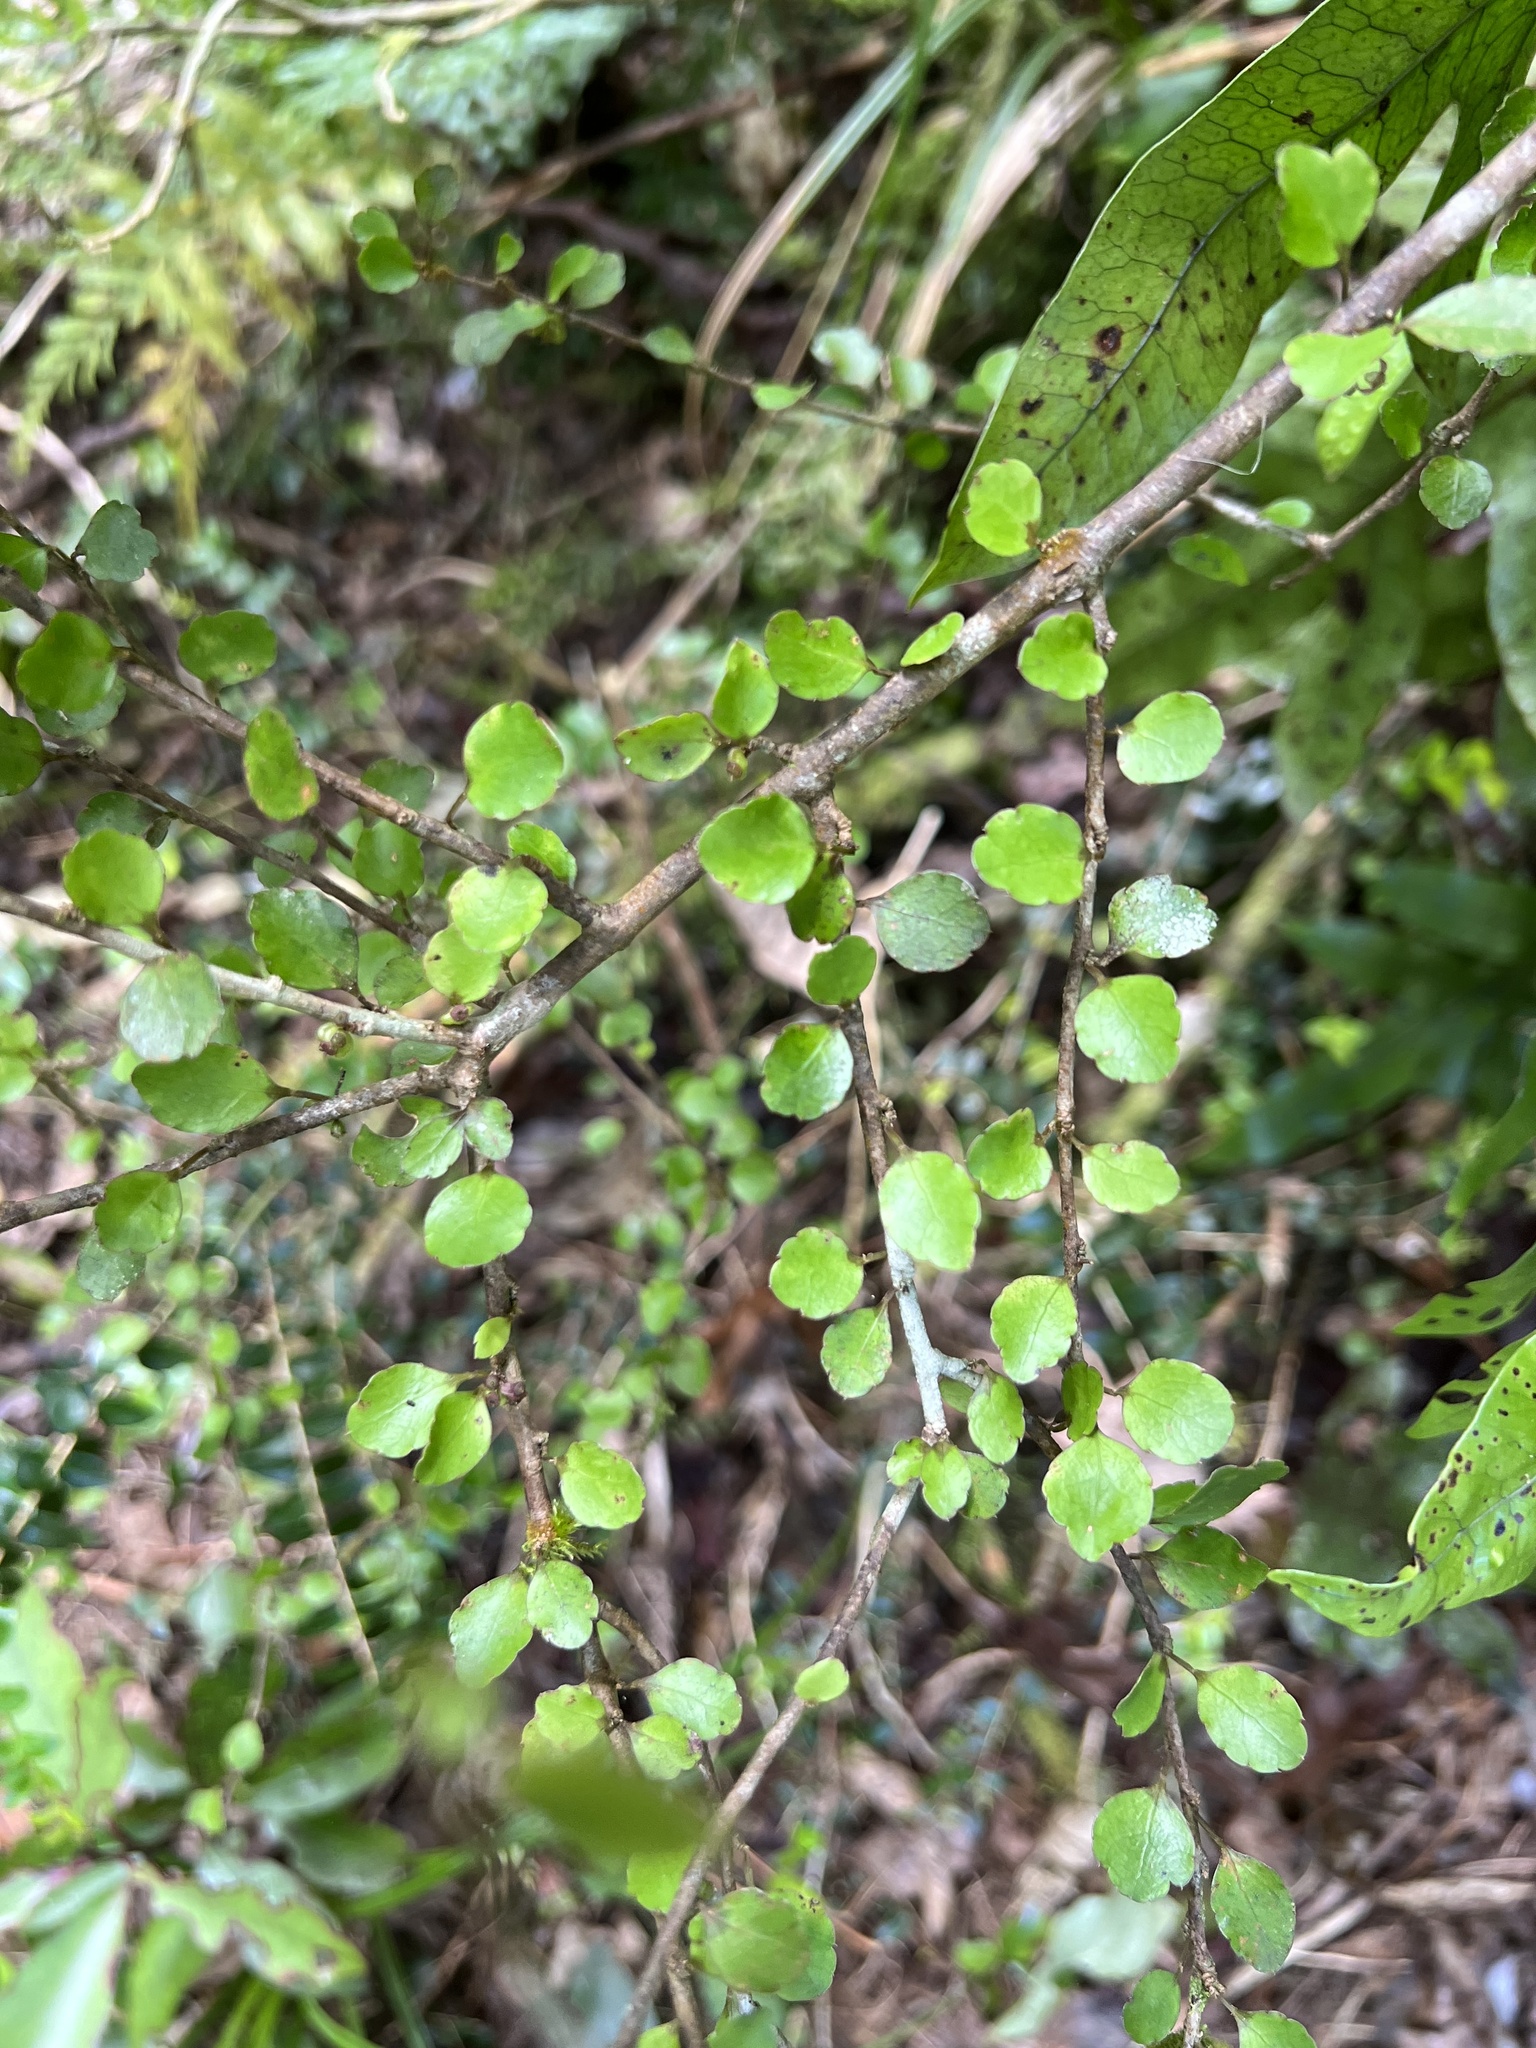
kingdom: Plantae
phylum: Tracheophyta
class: Magnoliopsida
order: Apiales
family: Araliaceae
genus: Raukaua
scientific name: Raukaua anomalus
